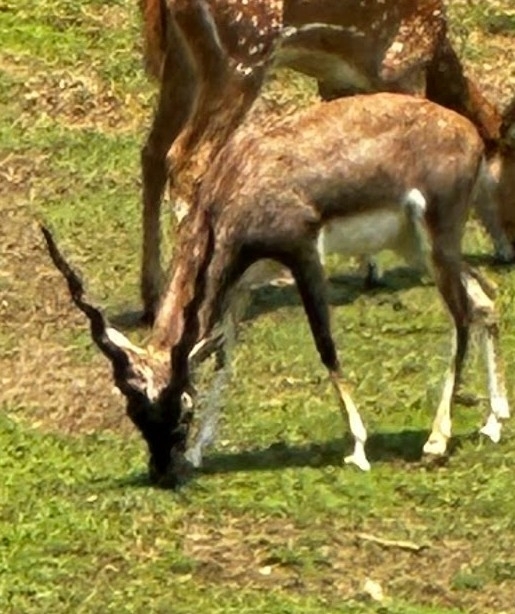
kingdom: Animalia
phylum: Chordata
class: Mammalia
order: Artiodactyla
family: Bovidae
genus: Antilope
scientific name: Antilope cervicapra
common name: Blackbuck
